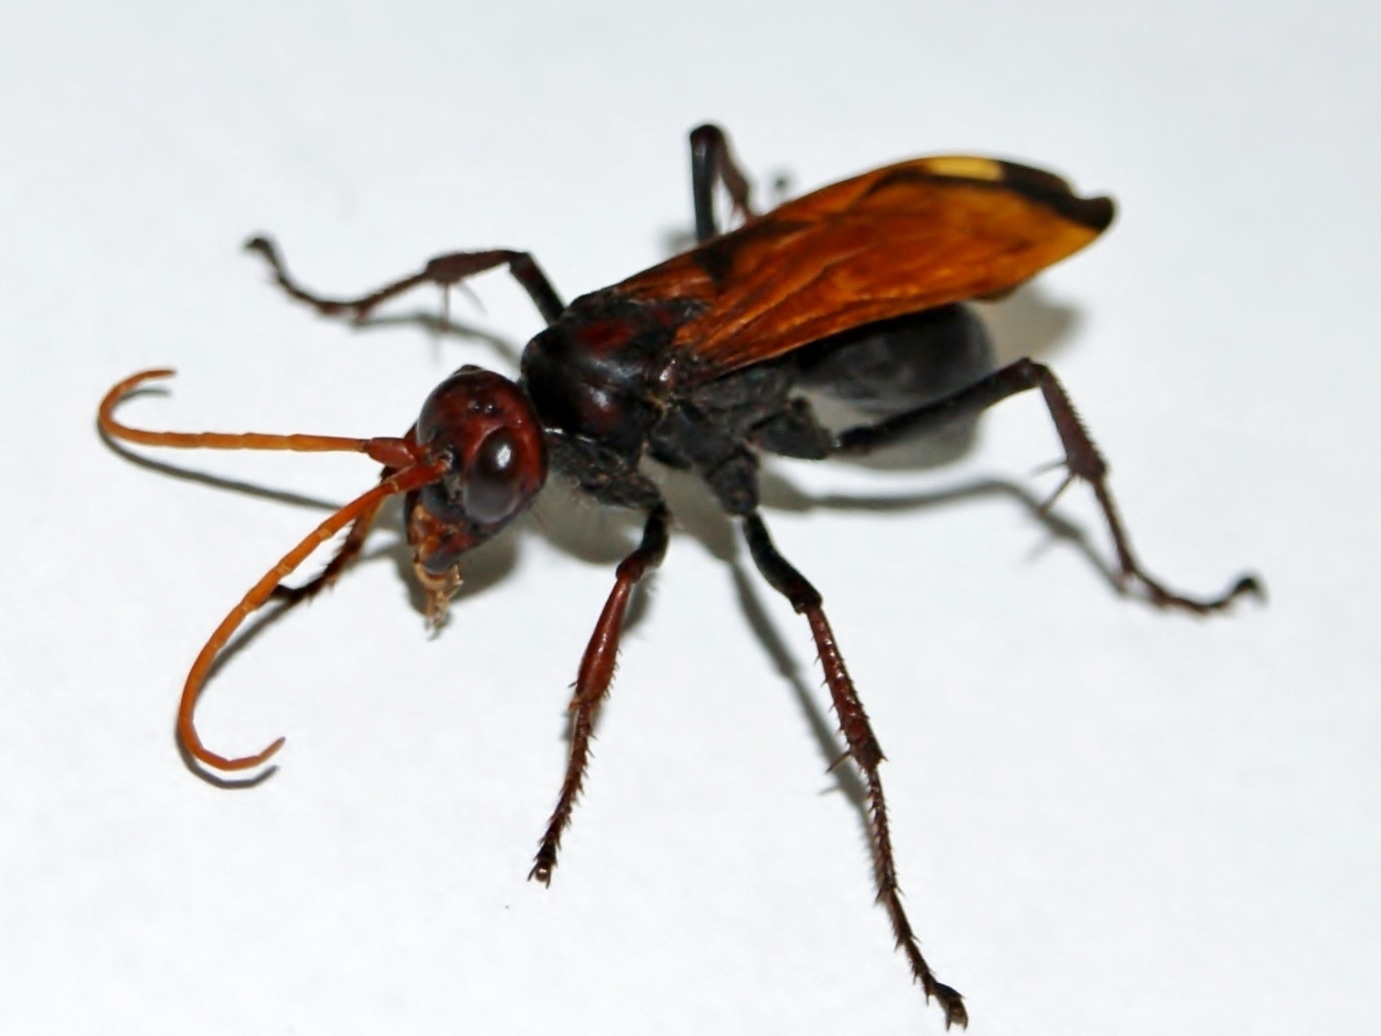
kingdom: Animalia
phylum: Arthropoda
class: Insecta
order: Hymenoptera
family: Pompilidae
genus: Hemipepsis
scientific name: Hemipepsis brunnea
